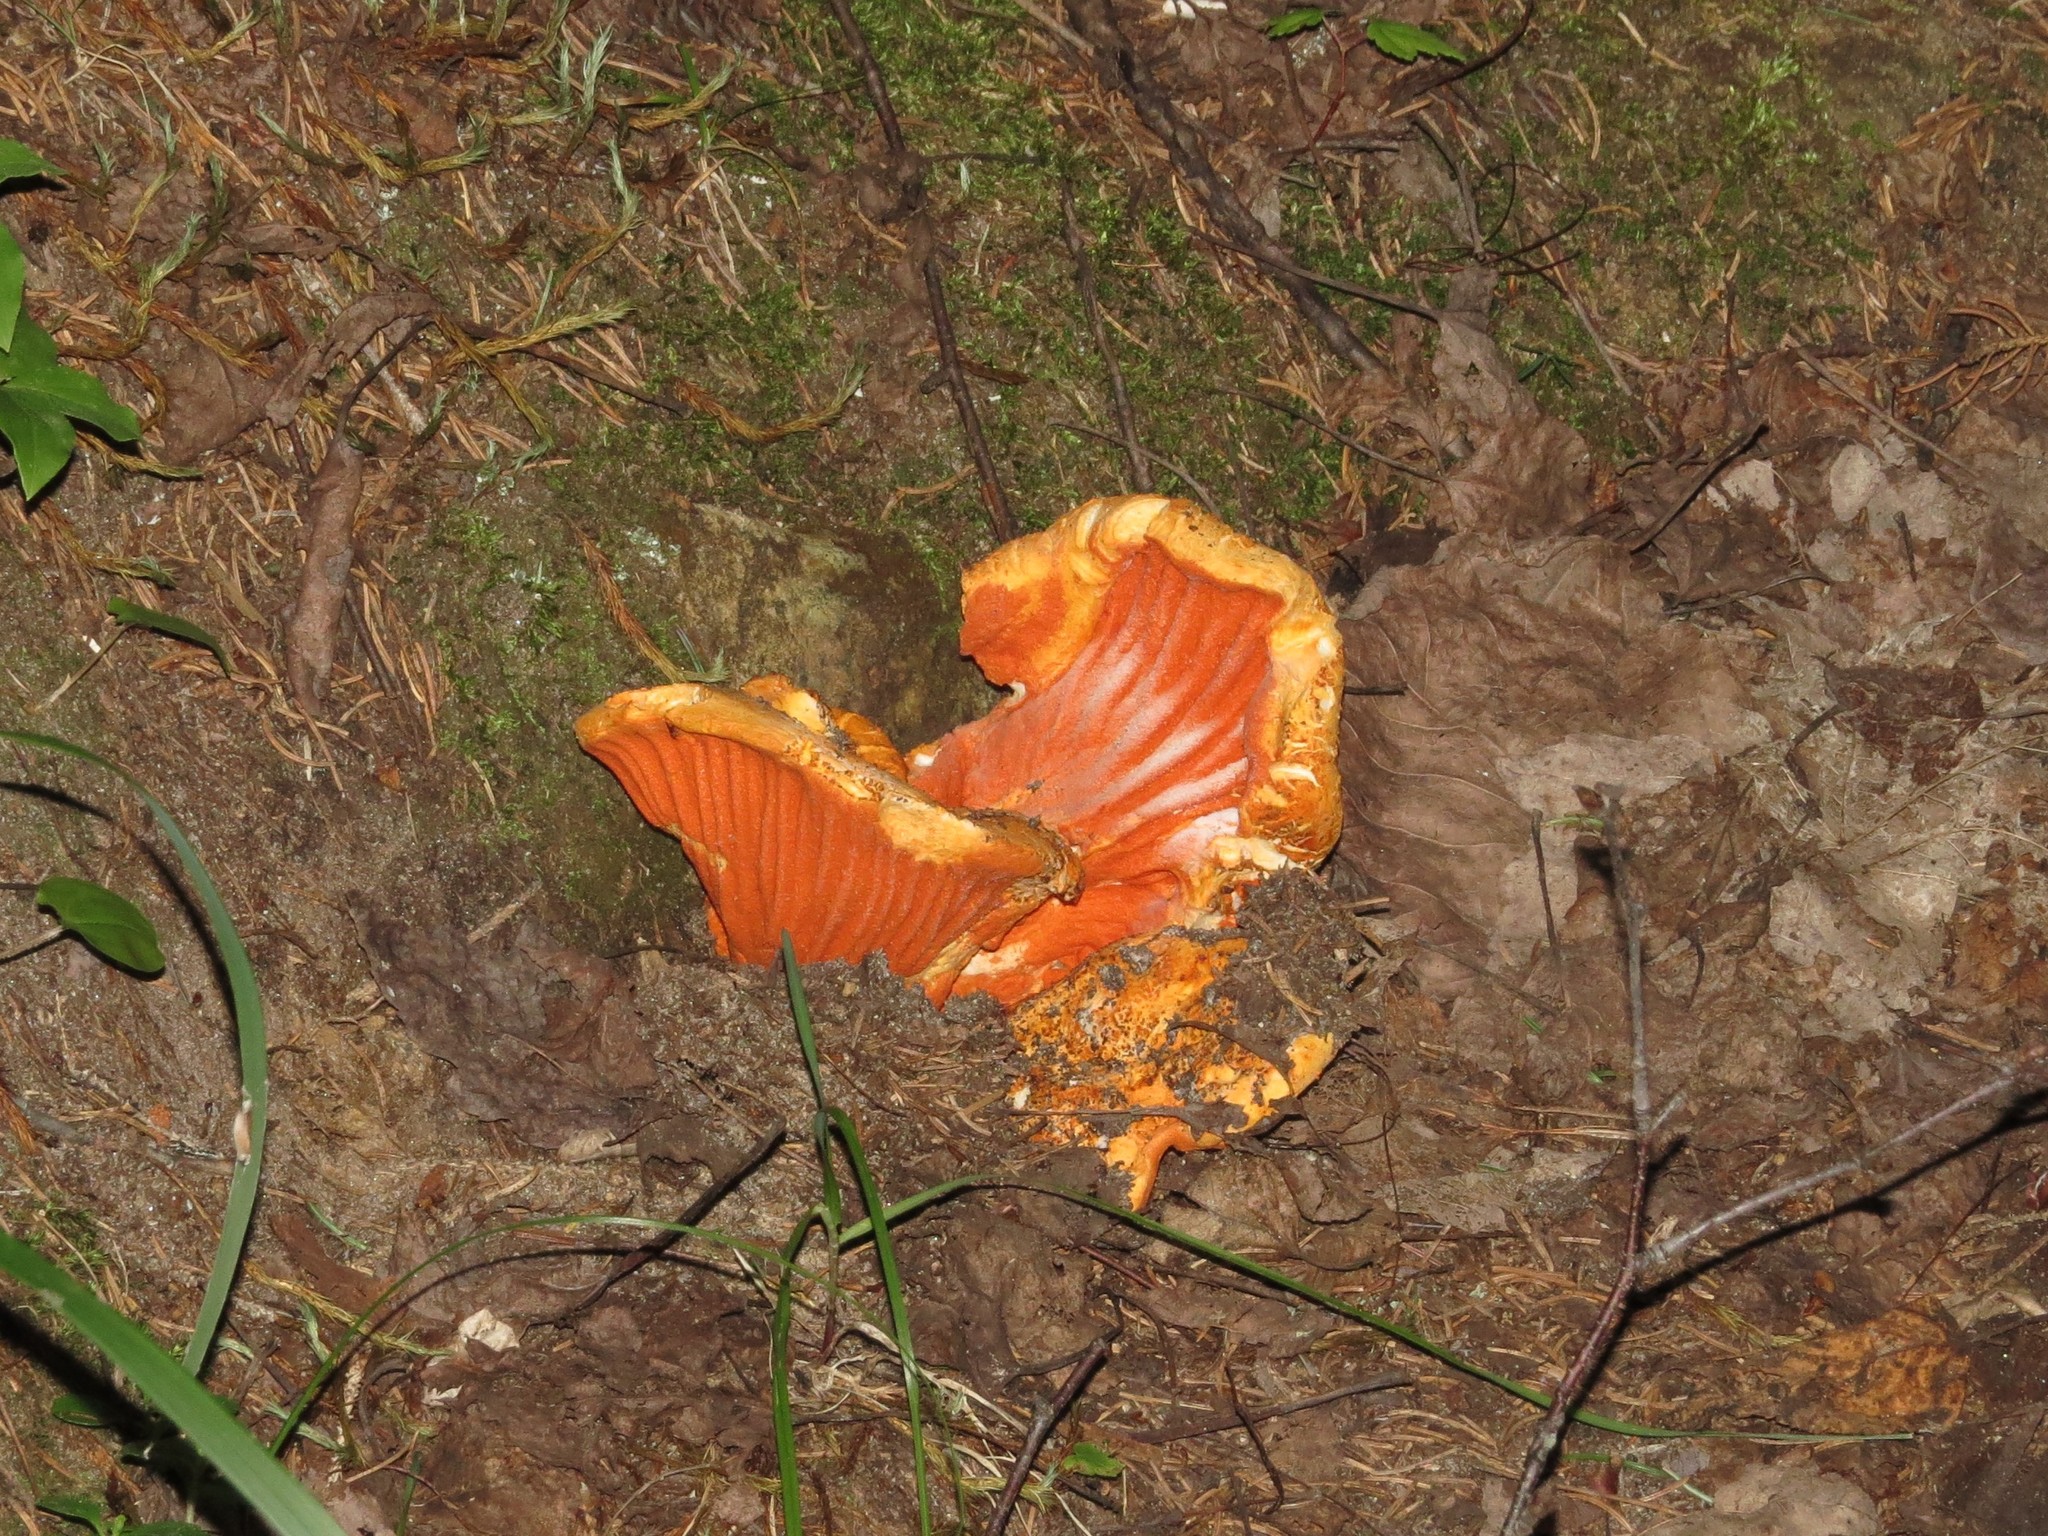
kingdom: Fungi
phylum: Ascomycota
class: Sordariomycetes
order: Hypocreales
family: Hypocreaceae
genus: Hypomyces
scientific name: Hypomyces lactifluorum
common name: Lobster mushroom
